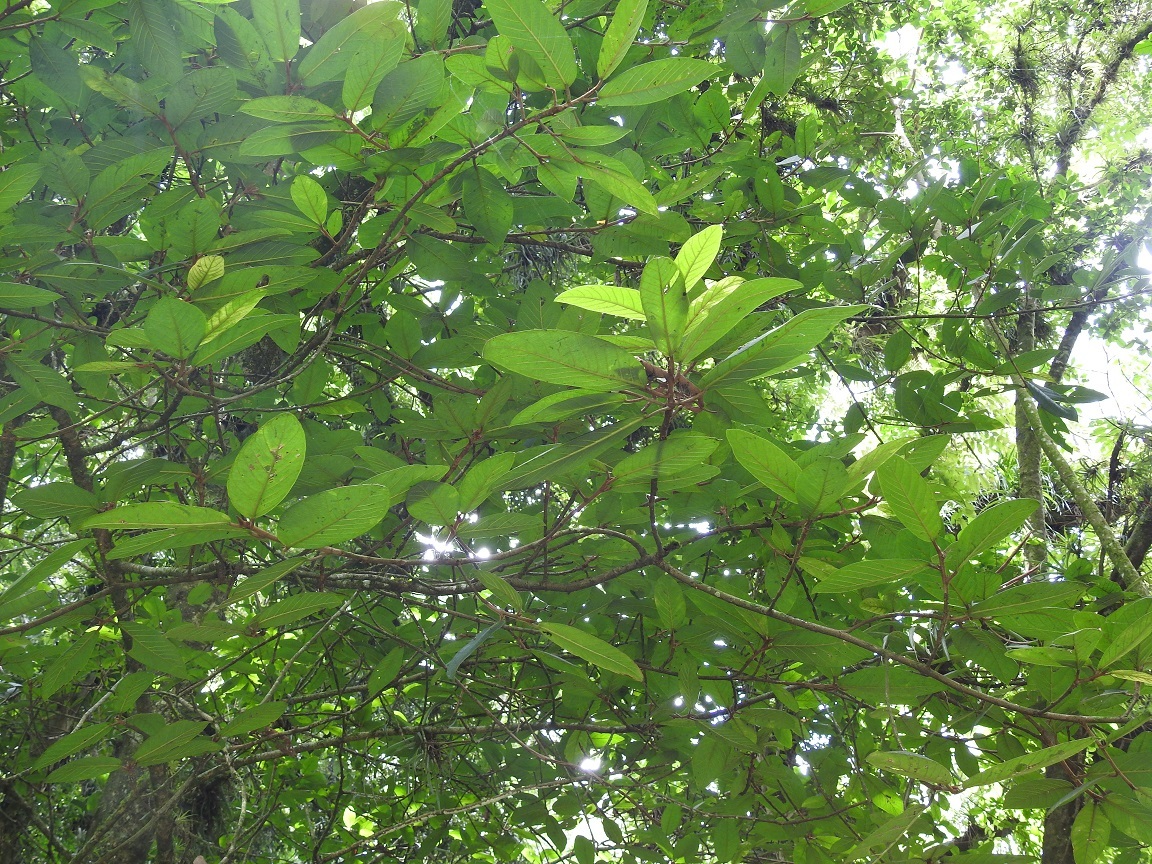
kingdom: Plantae
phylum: Tracheophyta
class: Magnoliopsida
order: Rosales
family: Moraceae
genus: Ficus
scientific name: Ficus trigonata
